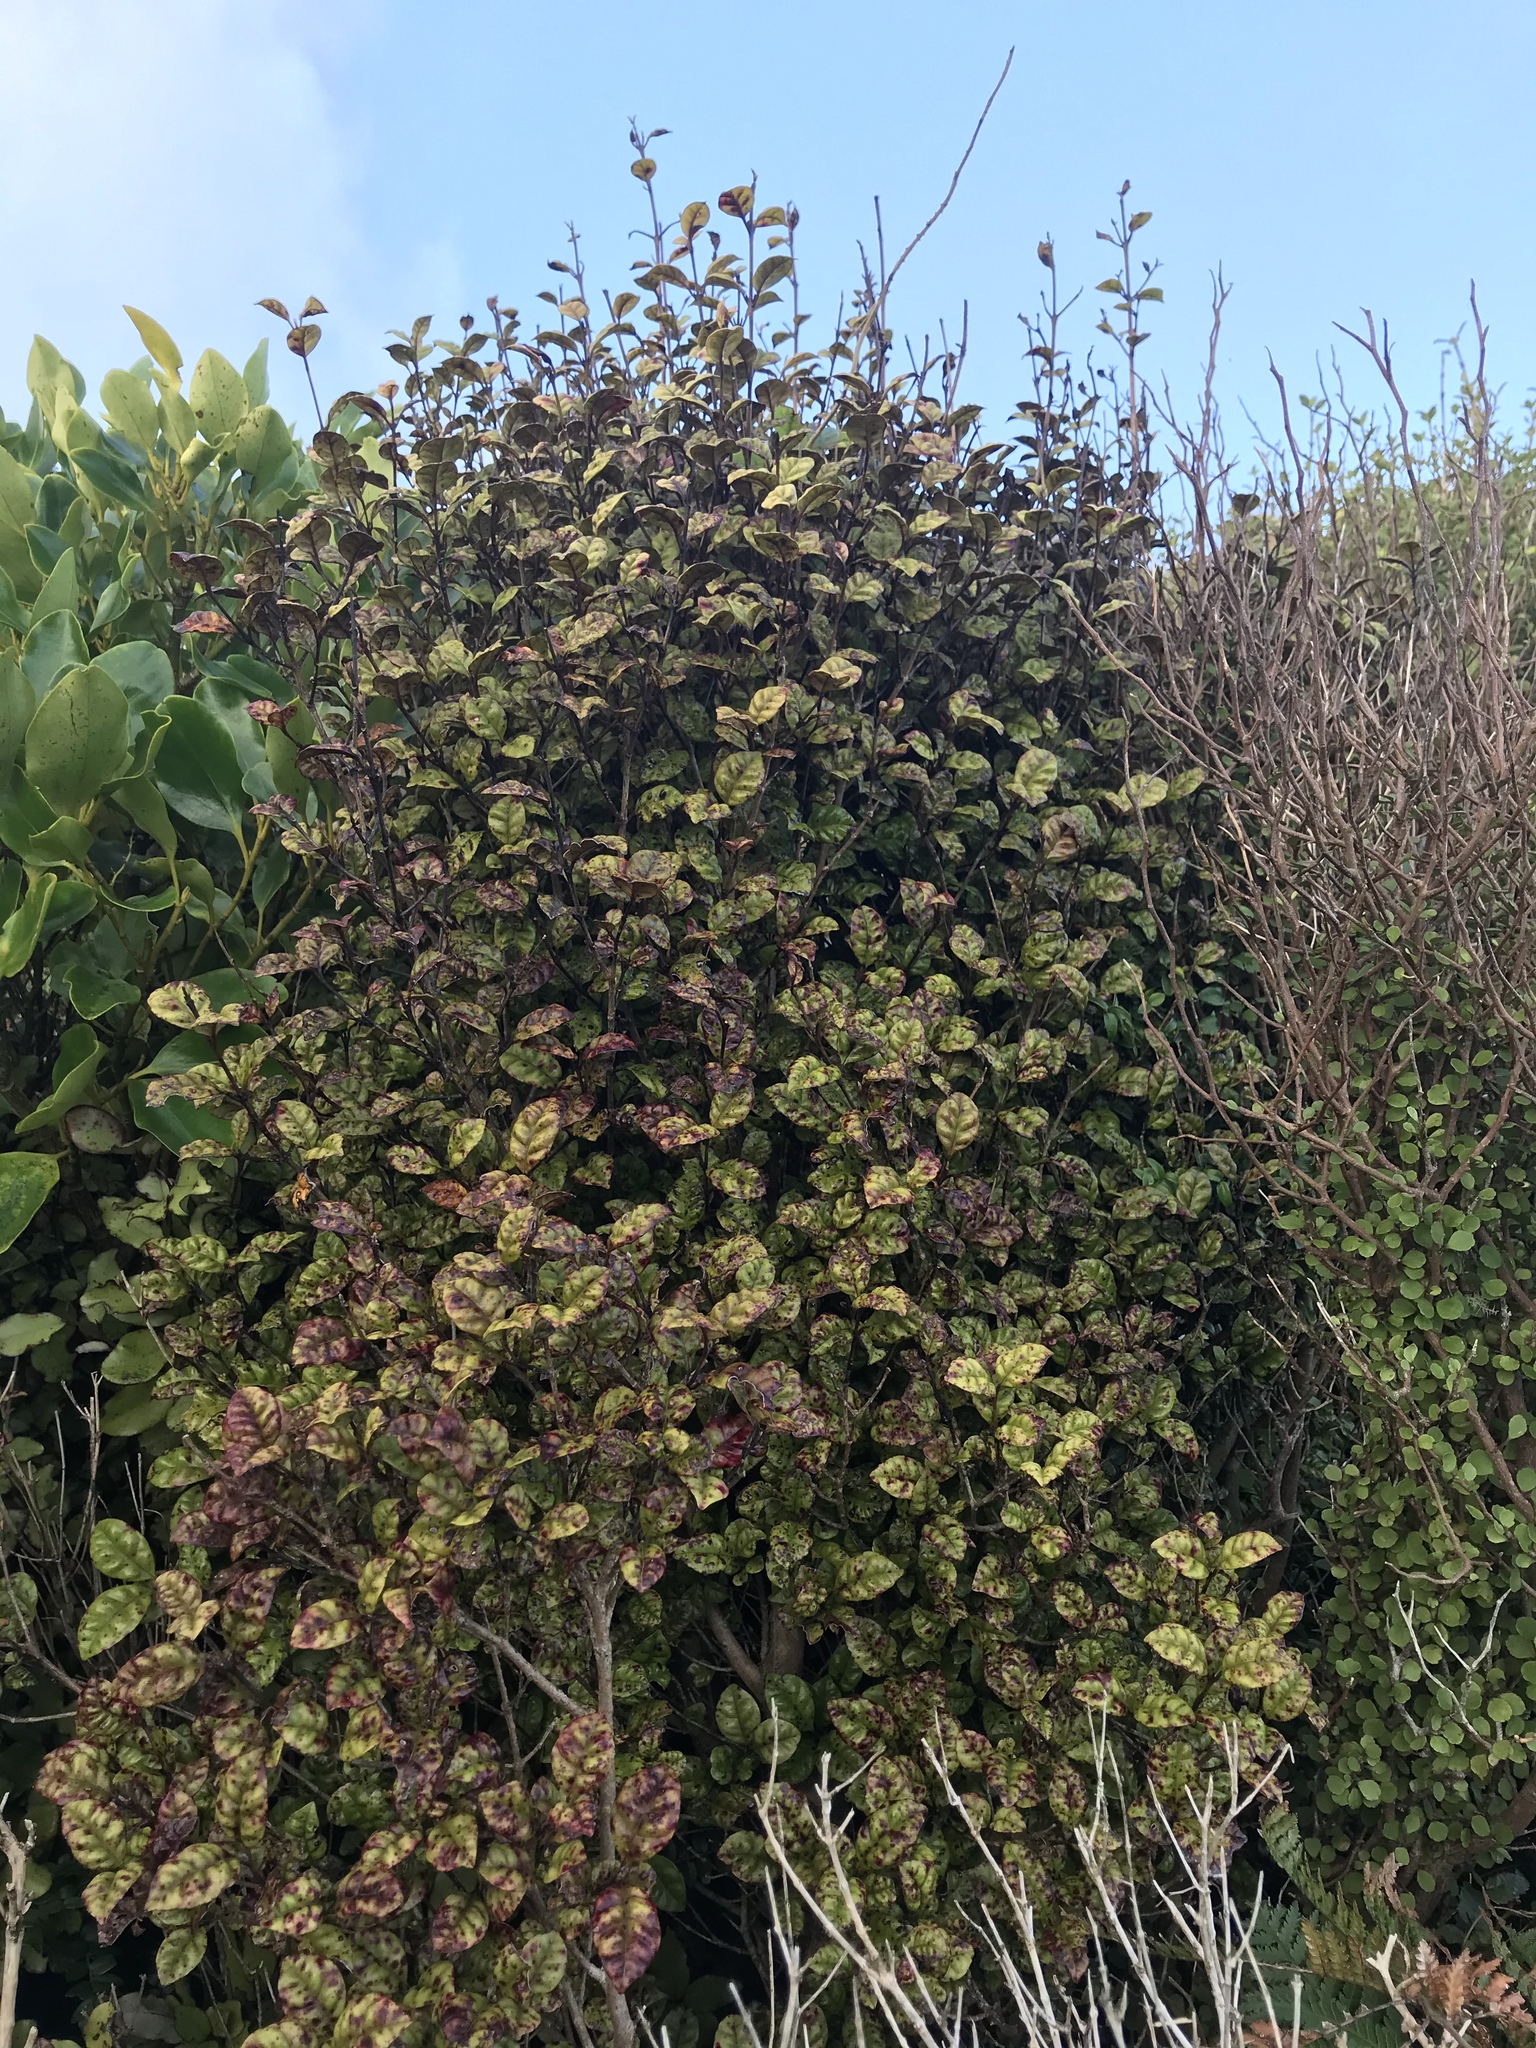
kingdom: Plantae
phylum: Tracheophyta
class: Magnoliopsida
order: Myrtales
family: Myrtaceae
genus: Lophomyrtus
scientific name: Lophomyrtus bullata
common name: Rama rama
